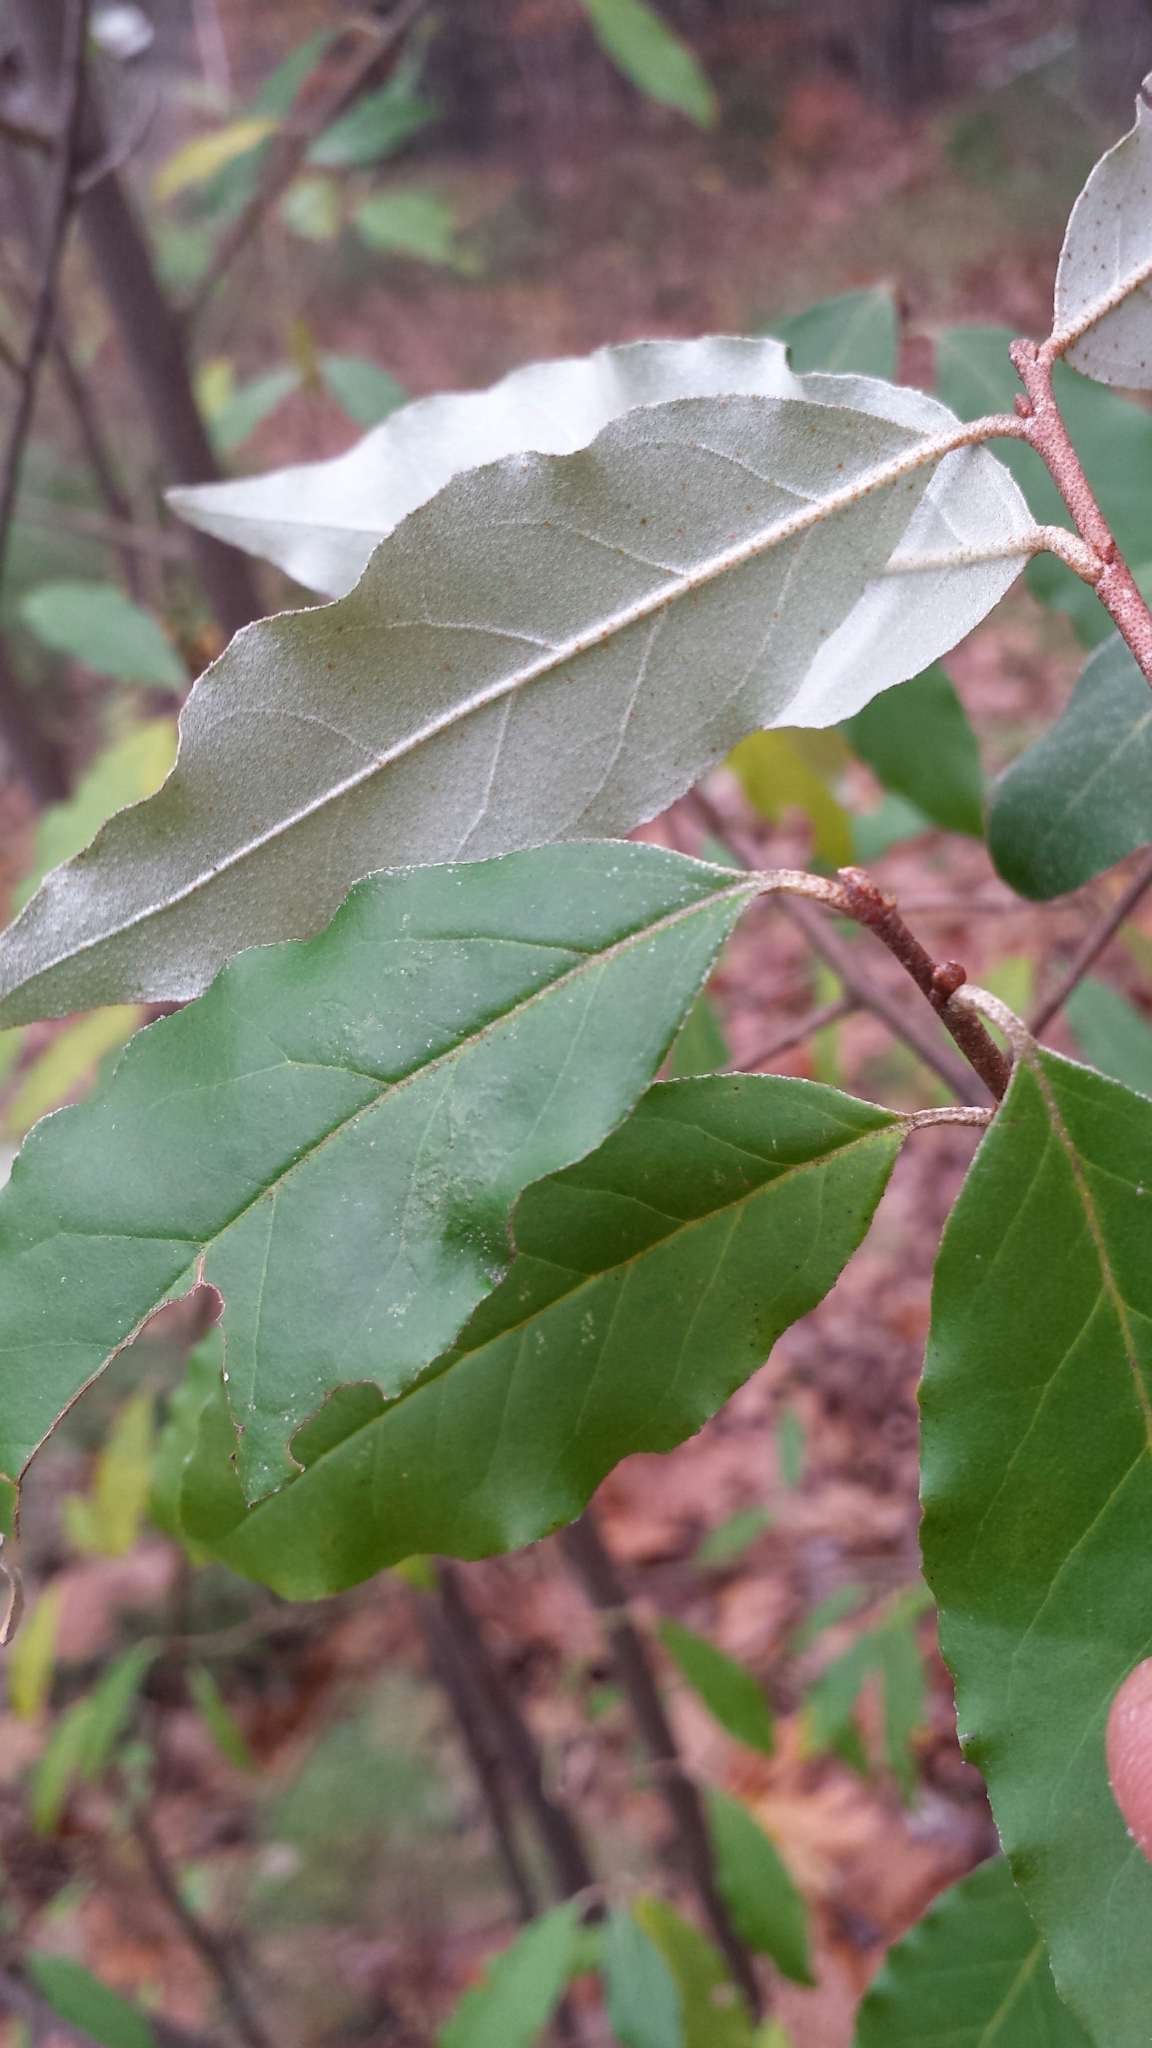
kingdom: Plantae
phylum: Tracheophyta
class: Magnoliopsida
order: Rosales
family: Elaeagnaceae
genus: Elaeagnus
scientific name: Elaeagnus umbellata
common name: Autumn olive
